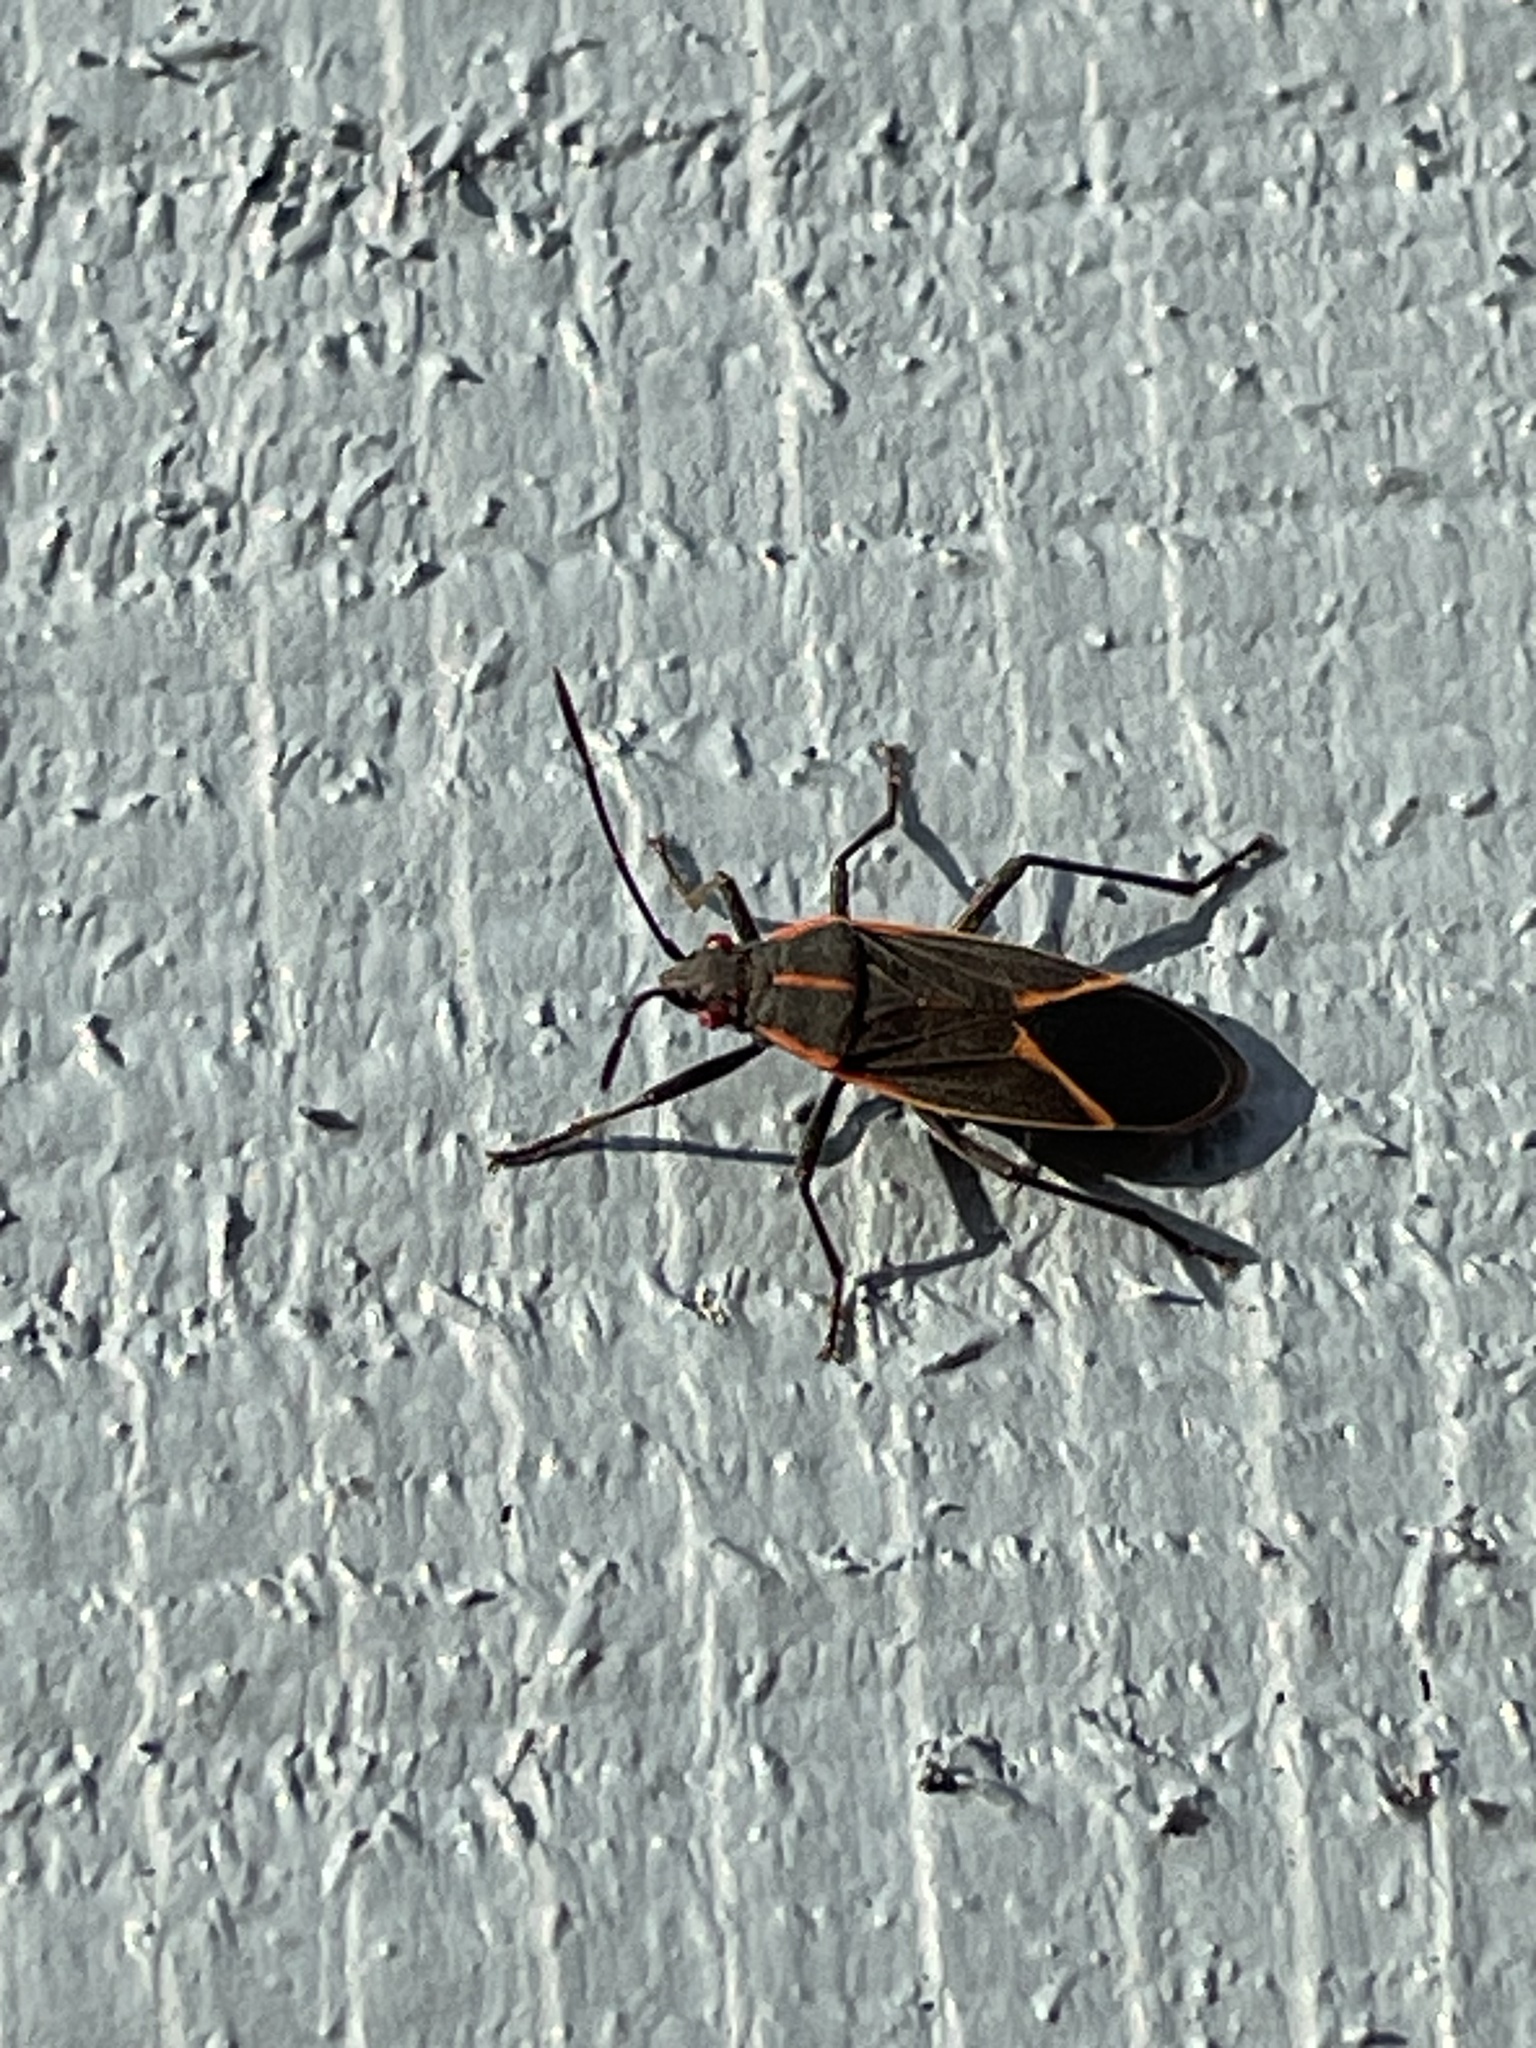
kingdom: Animalia
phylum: Arthropoda
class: Insecta
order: Hemiptera
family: Rhopalidae
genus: Boisea
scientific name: Boisea trivittata
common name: Boxelder bug
